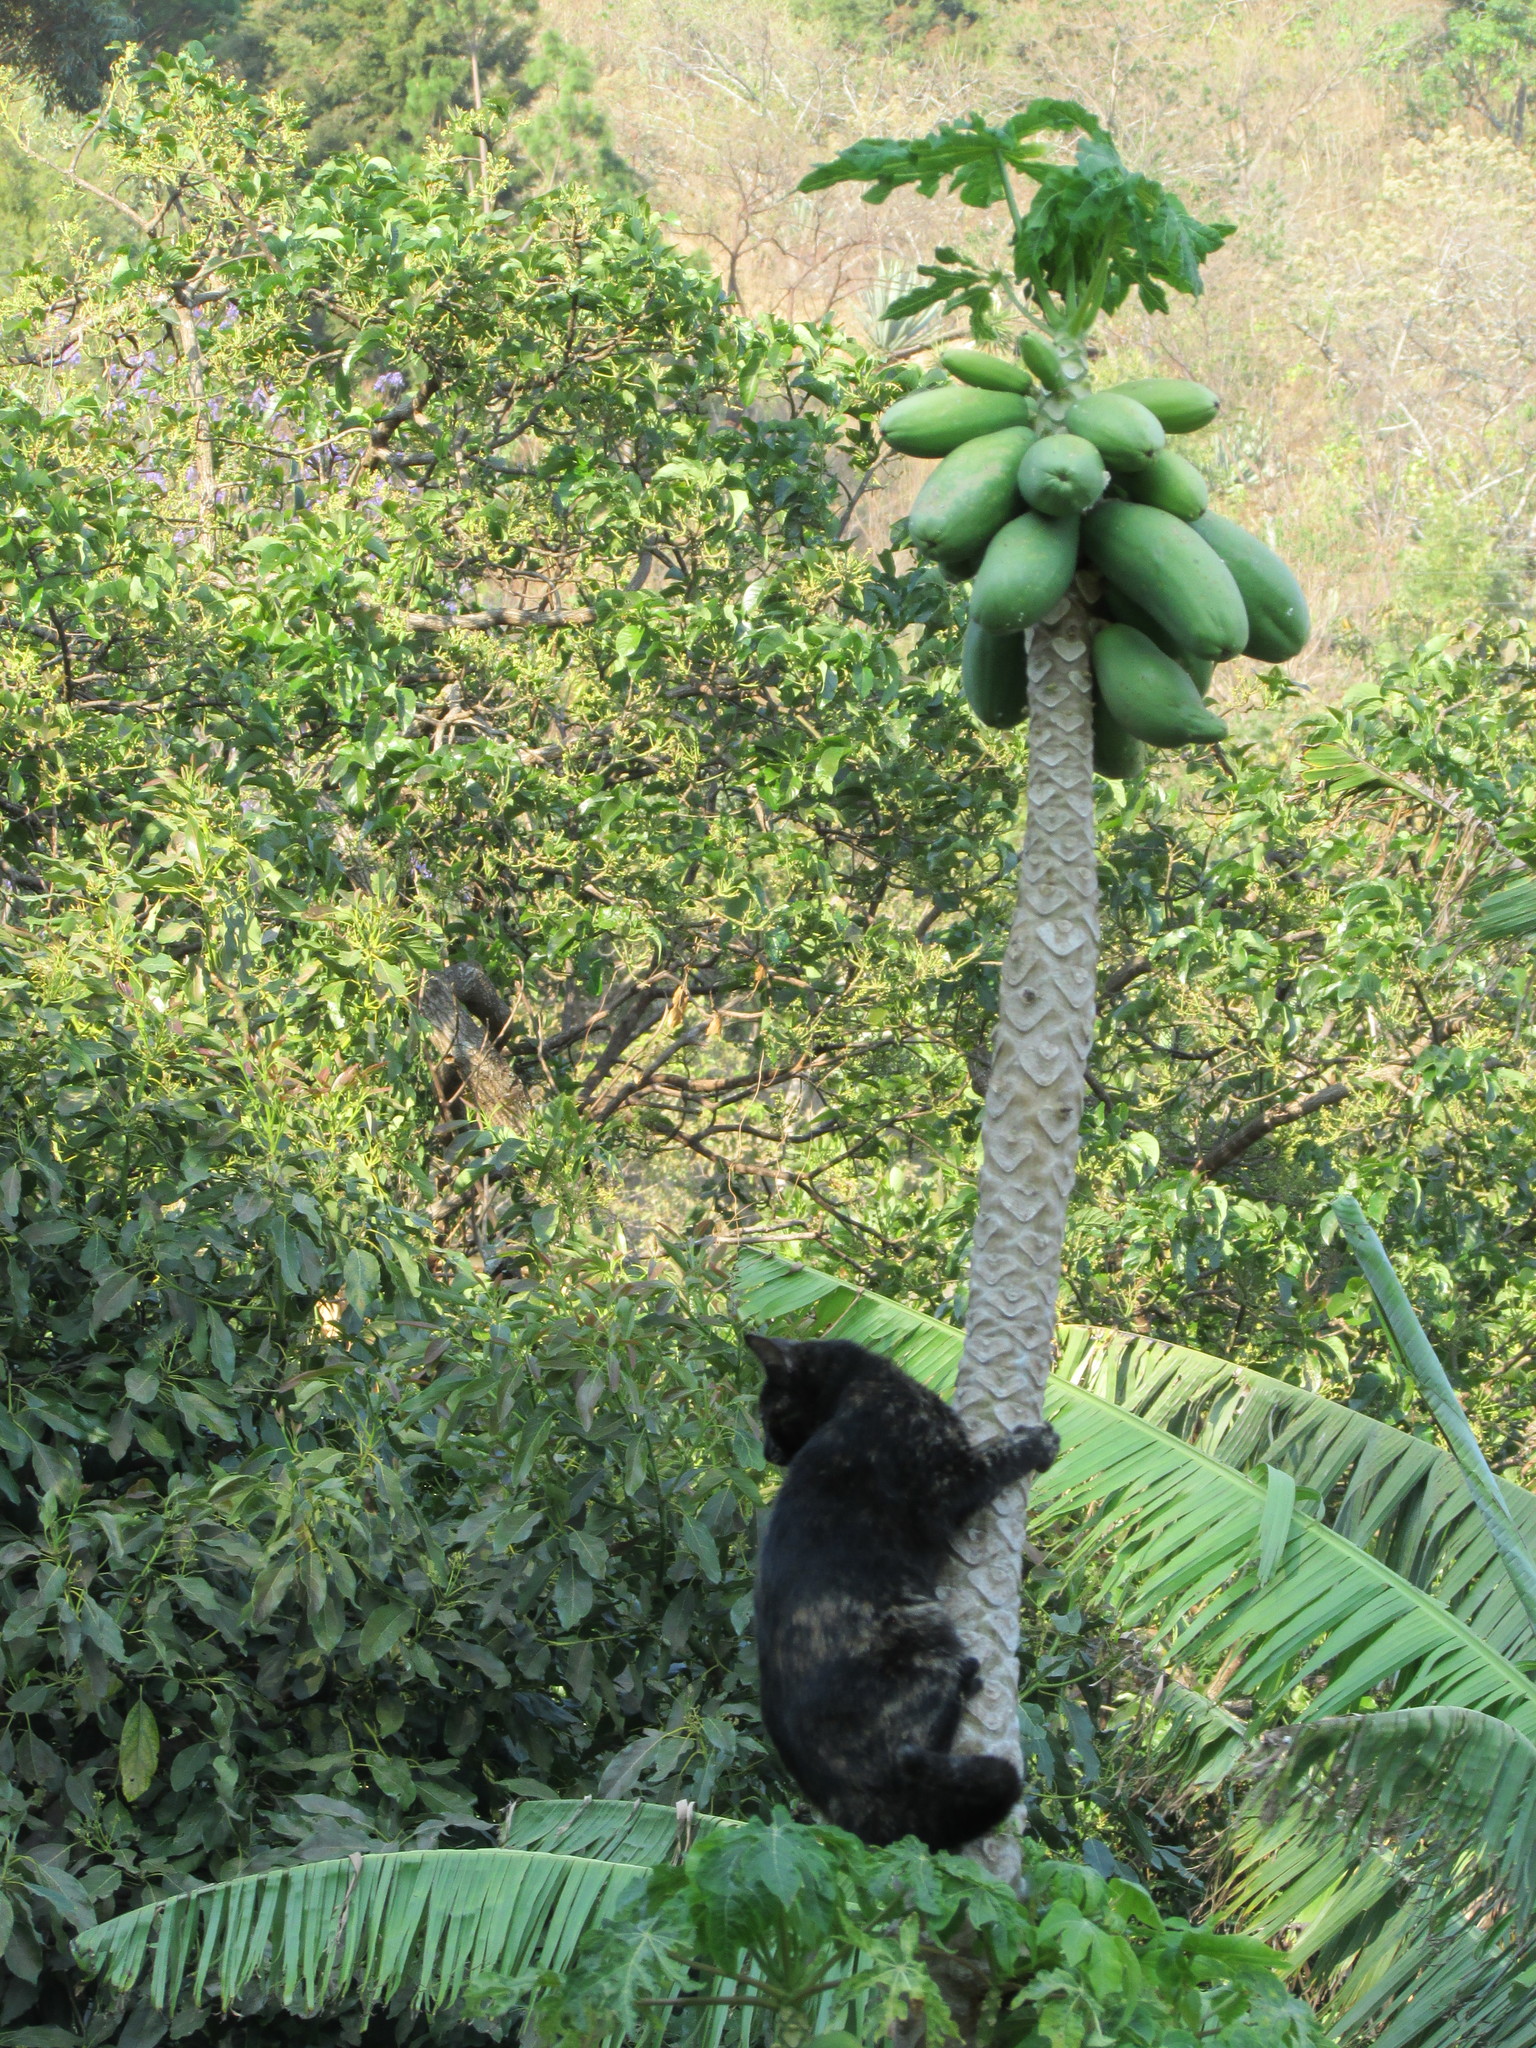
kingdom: Plantae
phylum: Tracheophyta
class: Magnoliopsida
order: Brassicales
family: Caricaceae
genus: Carica
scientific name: Carica papaya
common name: Papaya
